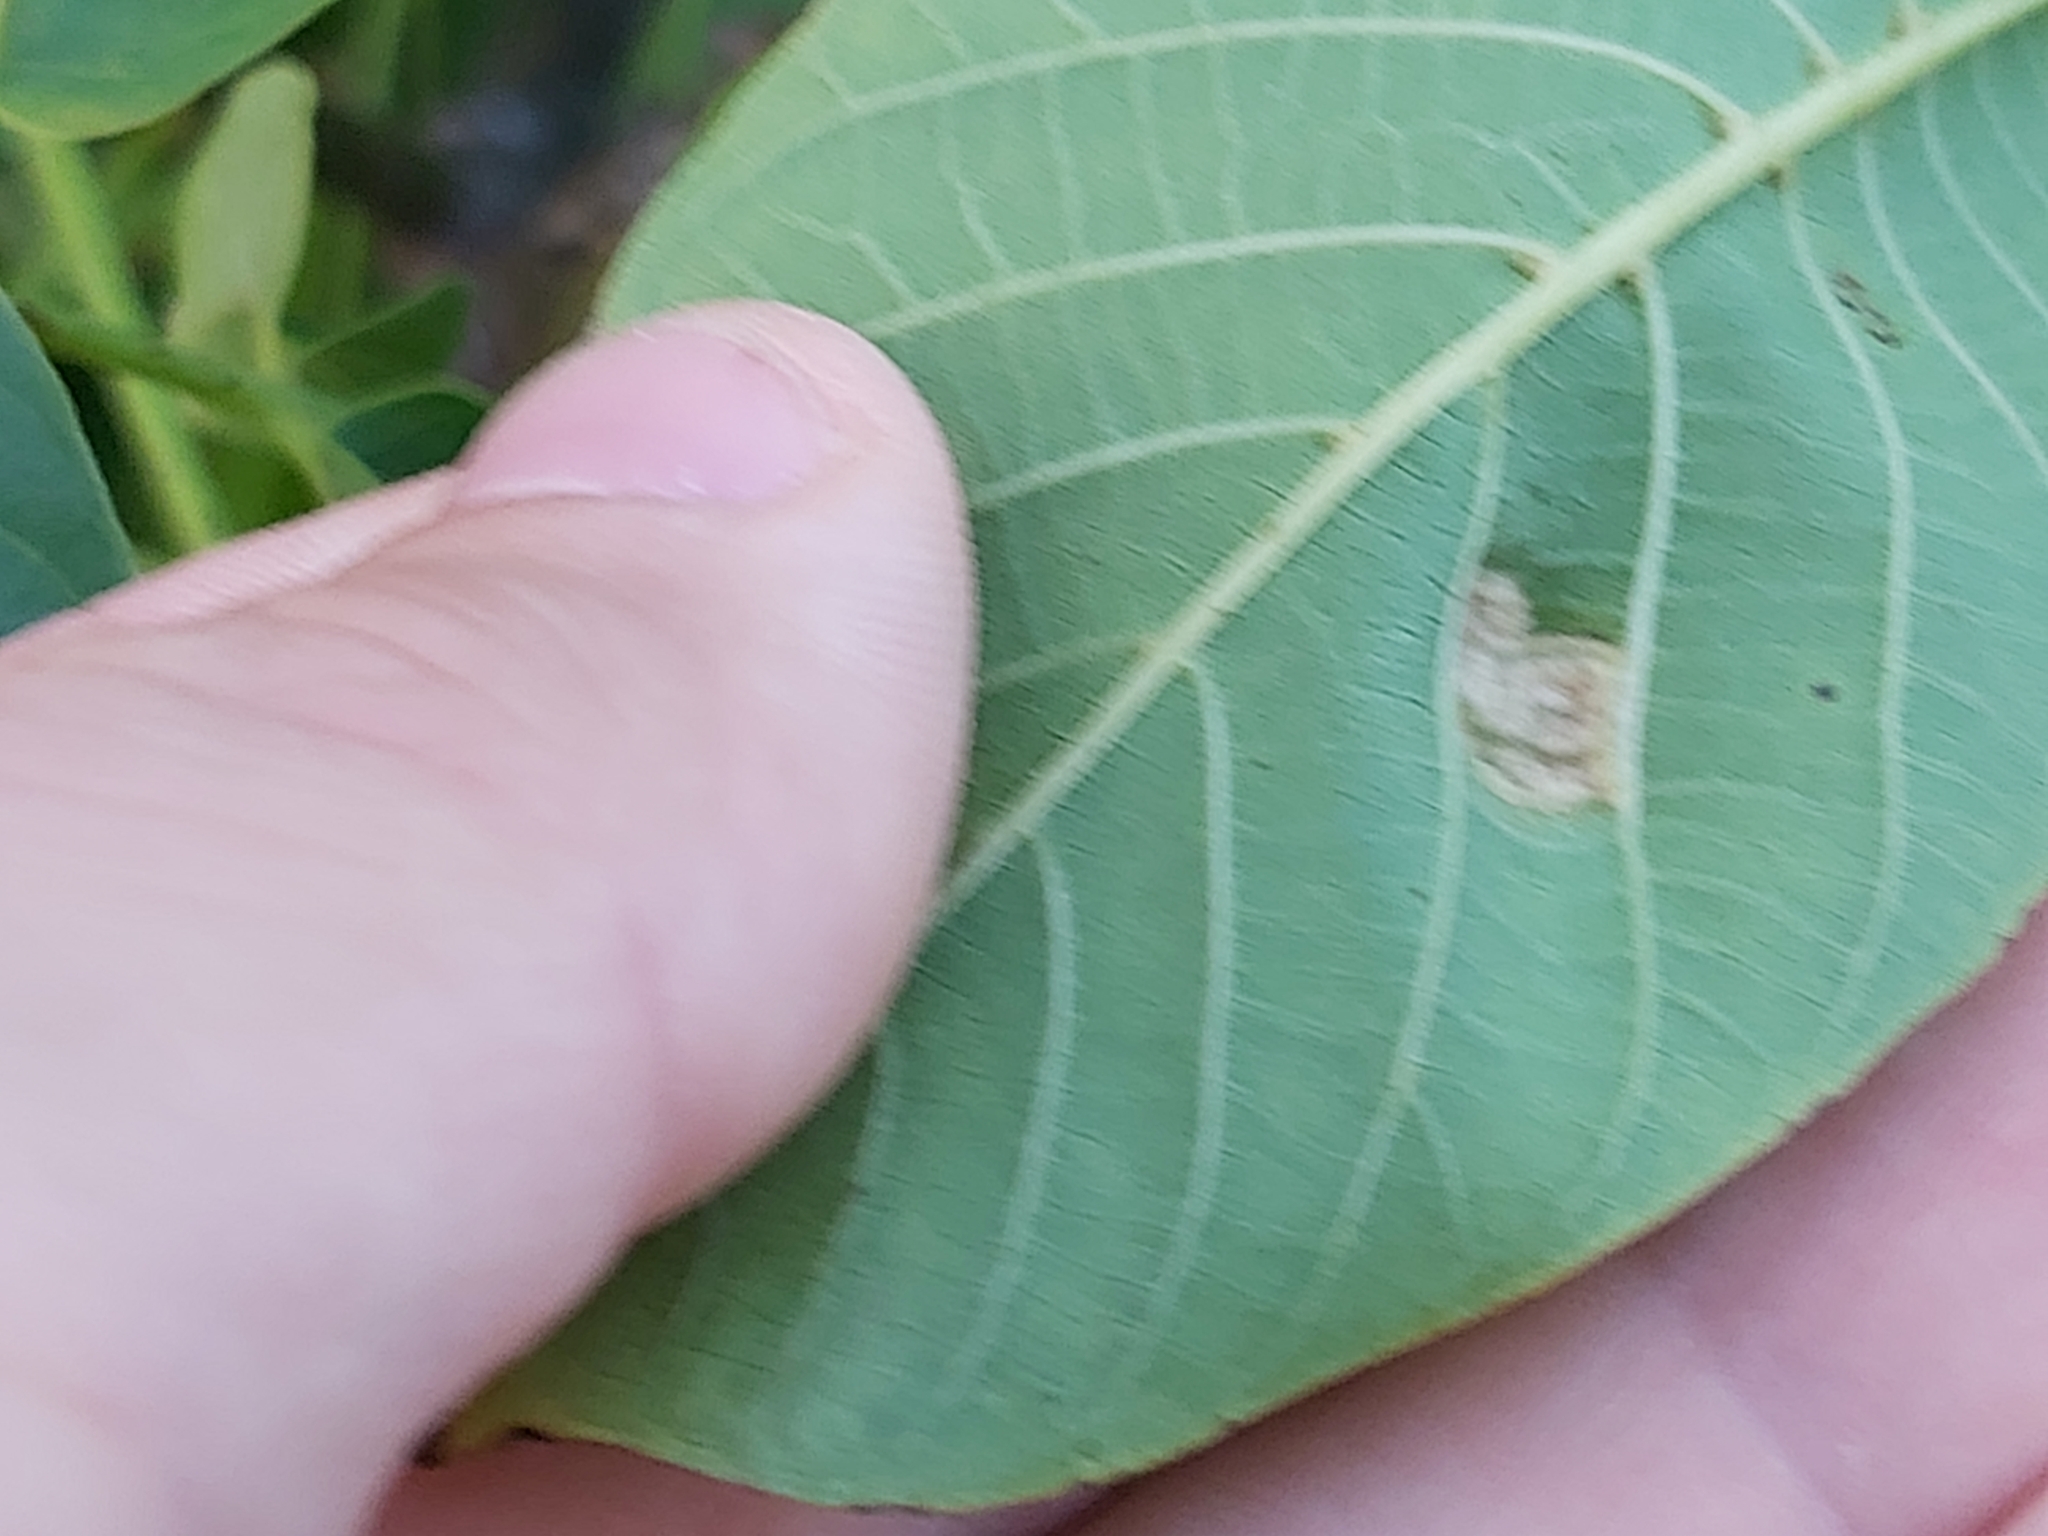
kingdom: Animalia
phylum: Arthropoda
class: Arachnida
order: Trombidiformes
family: Eriophyidae
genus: Aceria
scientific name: Aceria erinea
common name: Persian walnut erineum mite
